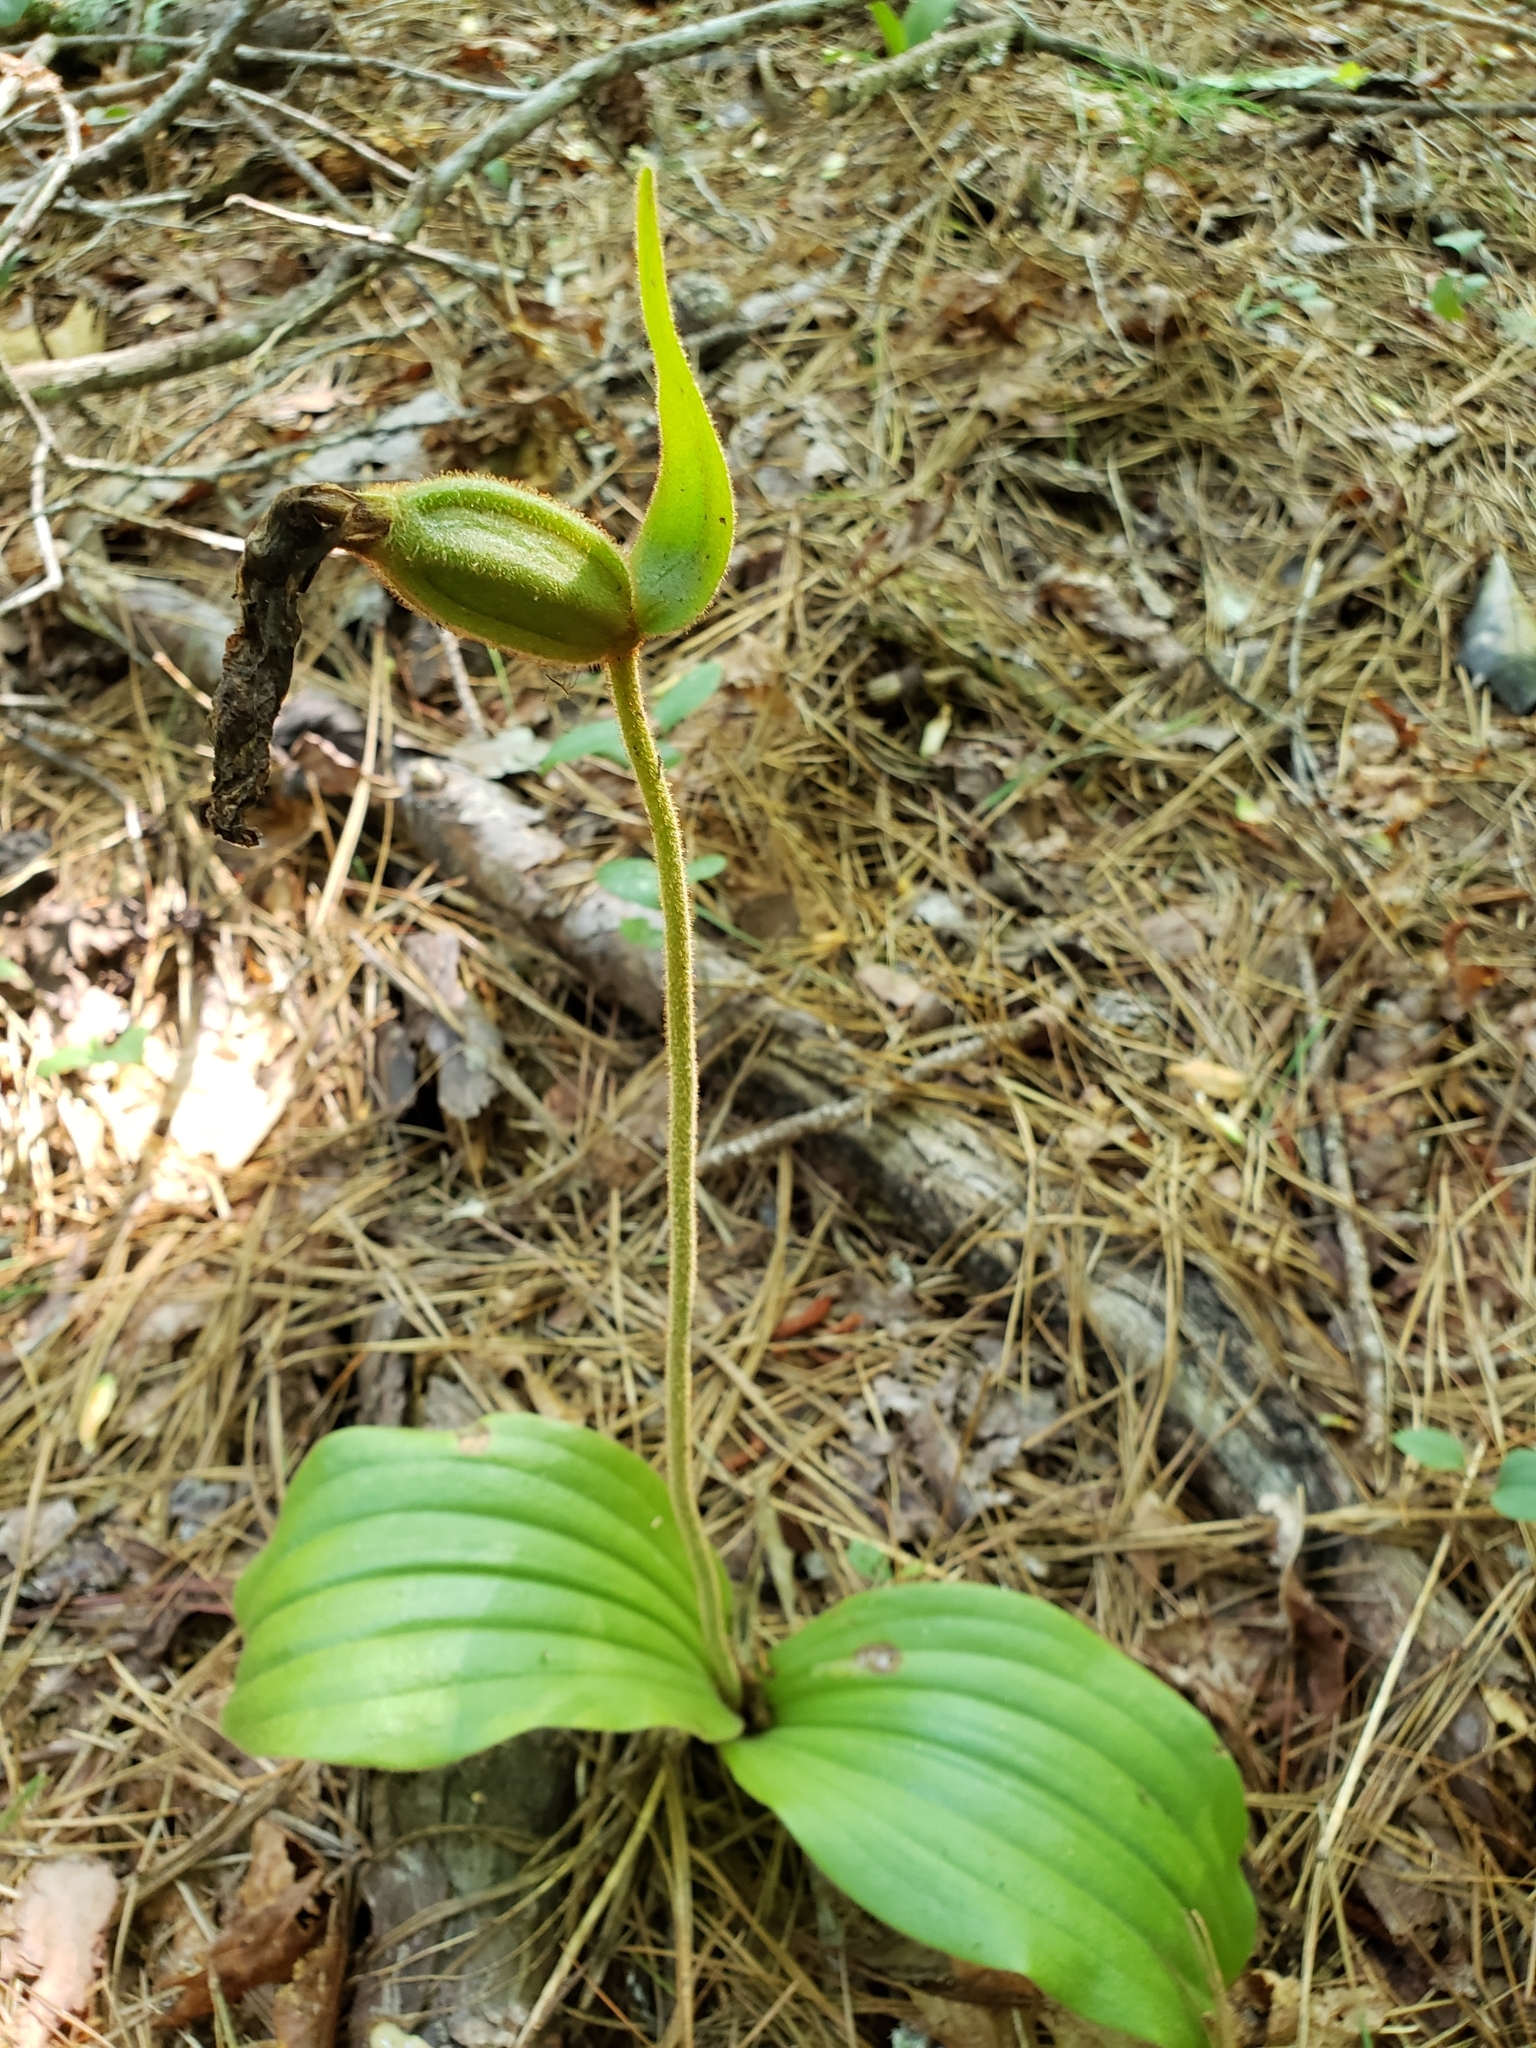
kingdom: Plantae
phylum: Tracheophyta
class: Liliopsida
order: Asparagales
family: Orchidaceae
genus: Cypripedium
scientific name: Cypripedium acaule
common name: Pink lady's-slipper
